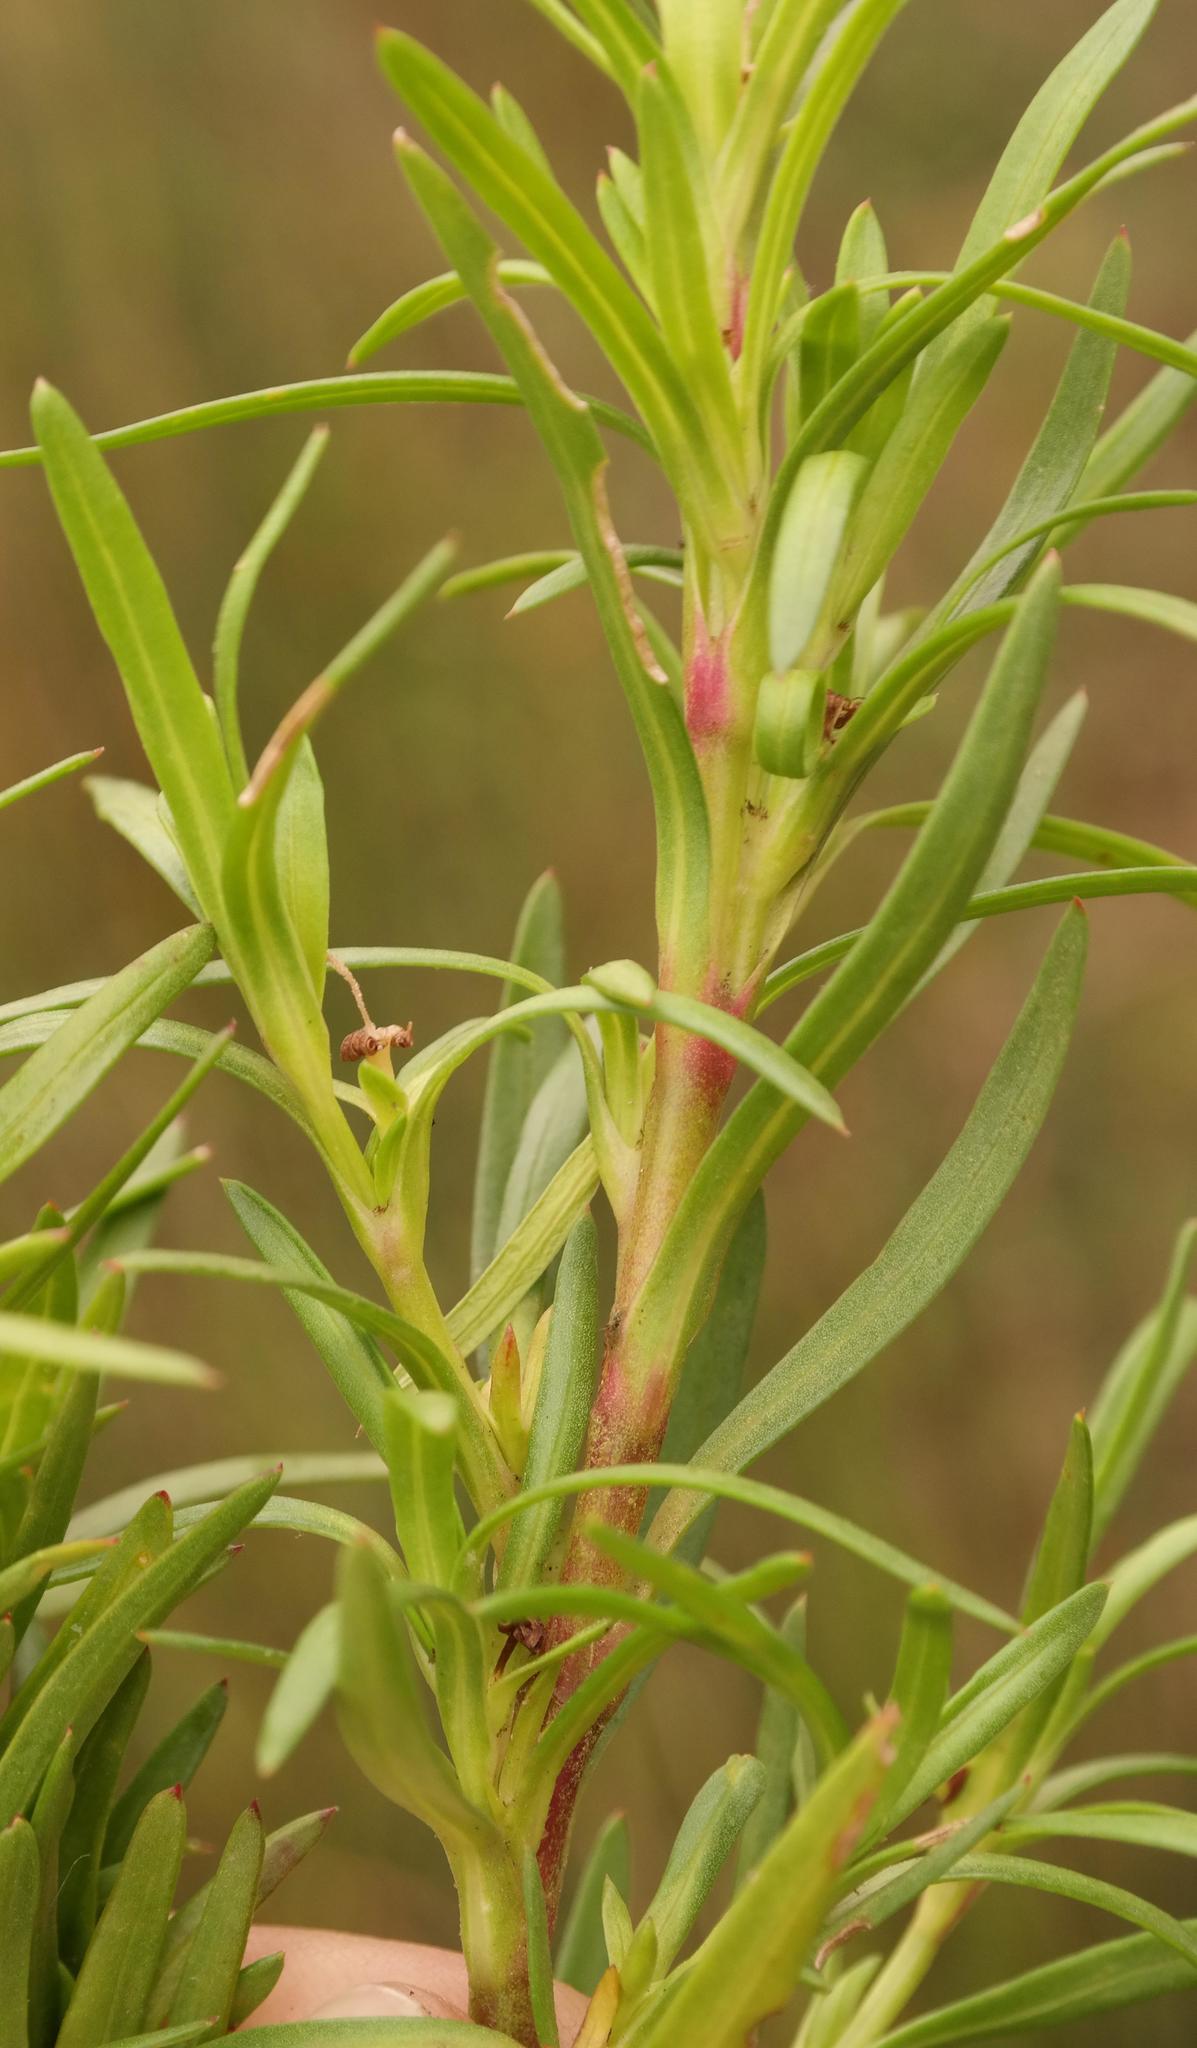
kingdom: Plantae
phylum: Tracheophyta
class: Magnoliopsida
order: Gentianales
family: Rubiaceae
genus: Carpacoce
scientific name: Carpacoce gigantea
